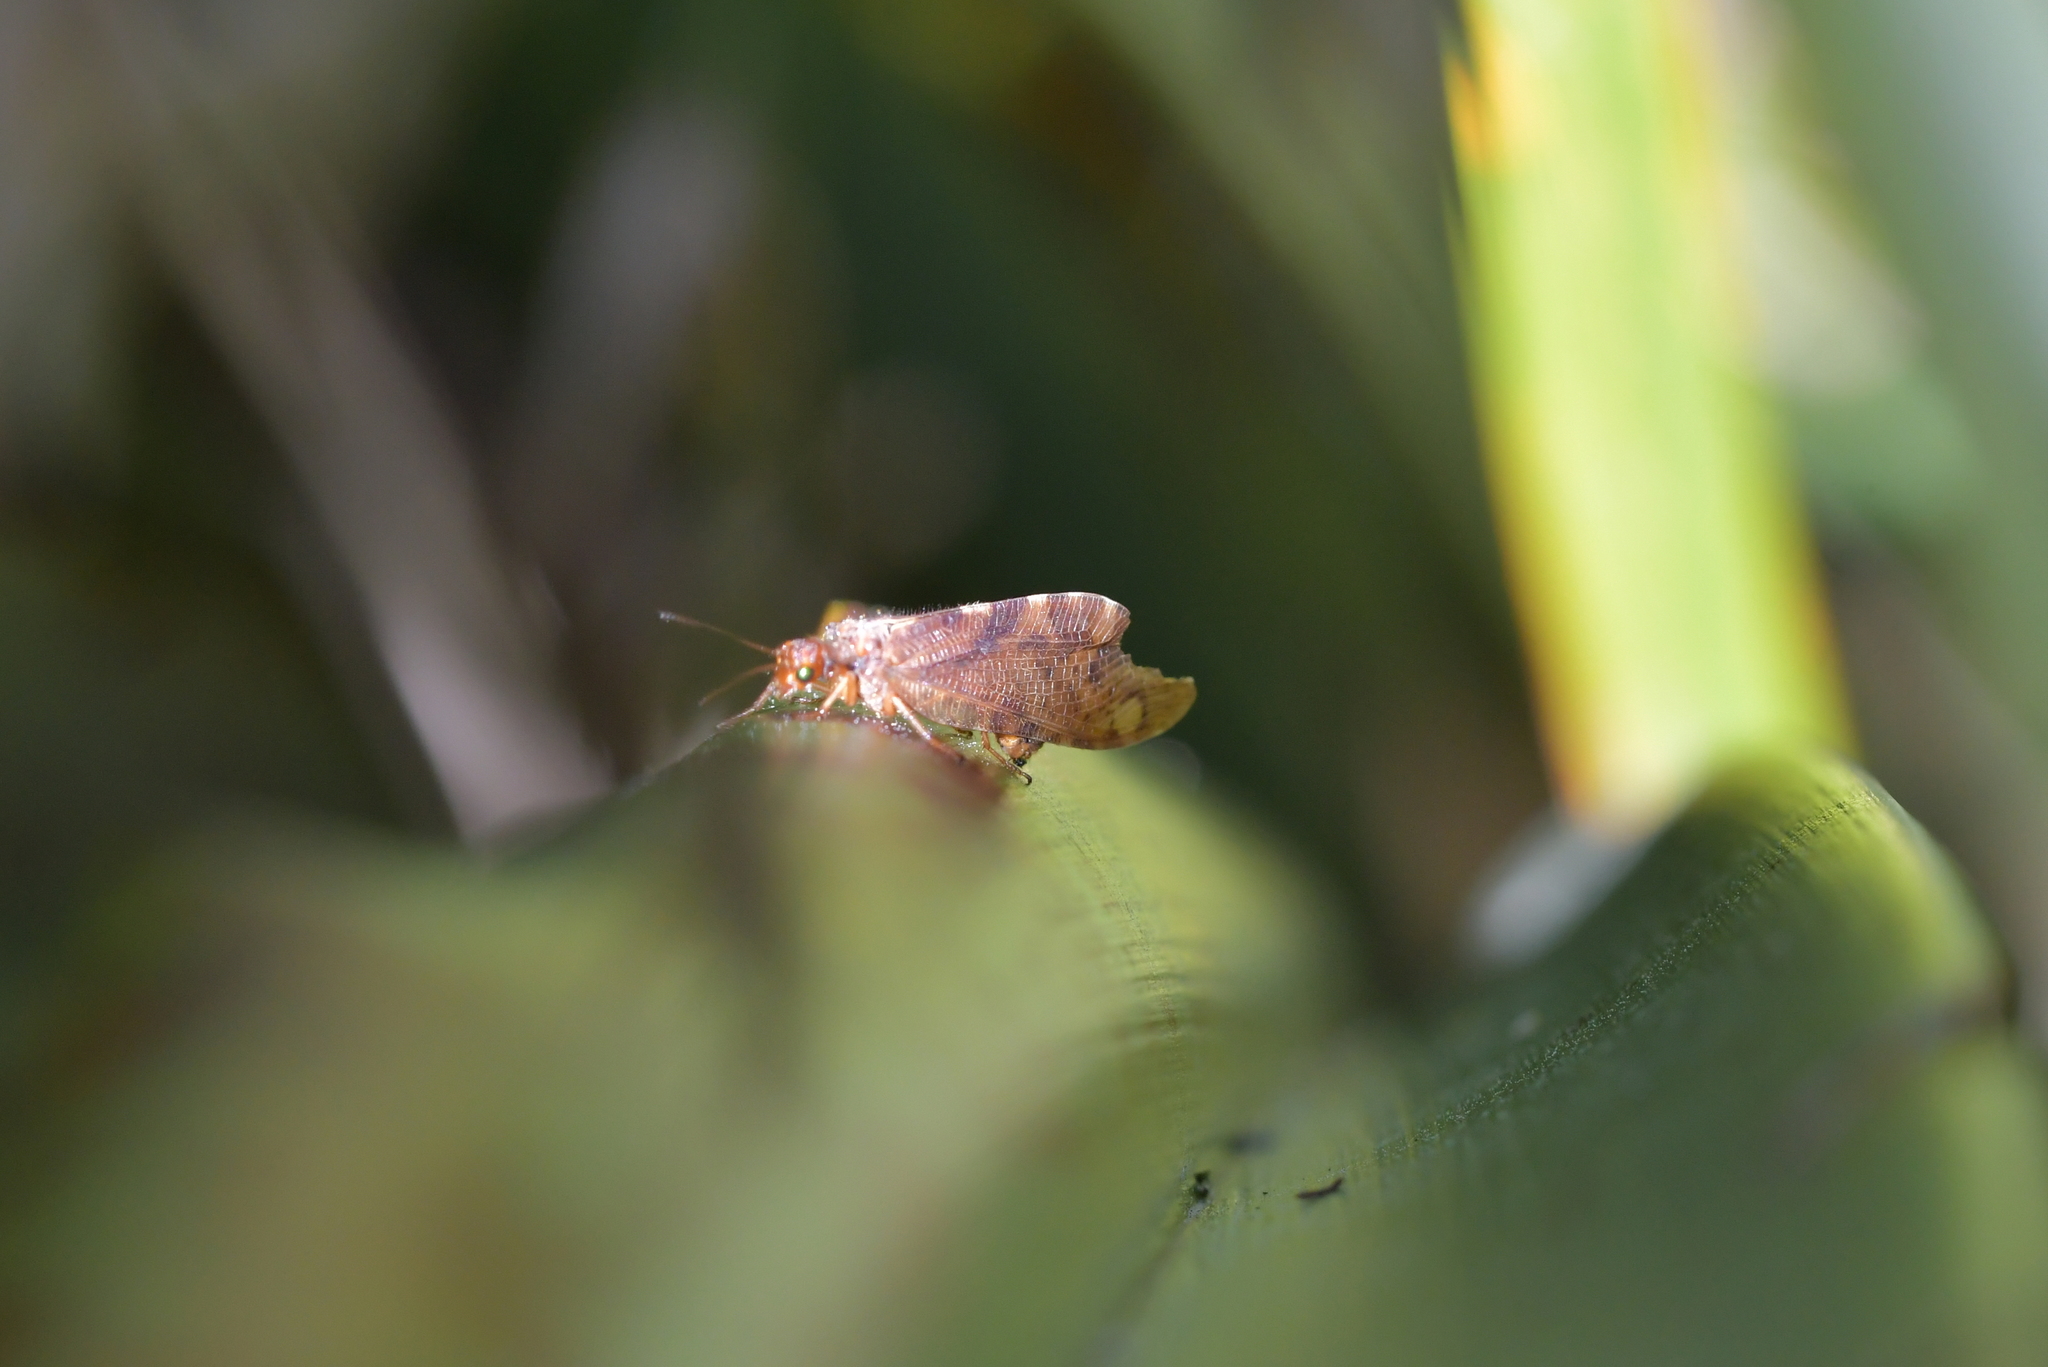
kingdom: Animalia
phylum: Arthropoda
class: Insecta
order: Neuroptera
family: Osmylidae
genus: Euosmylus
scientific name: Euosmylus stellae
